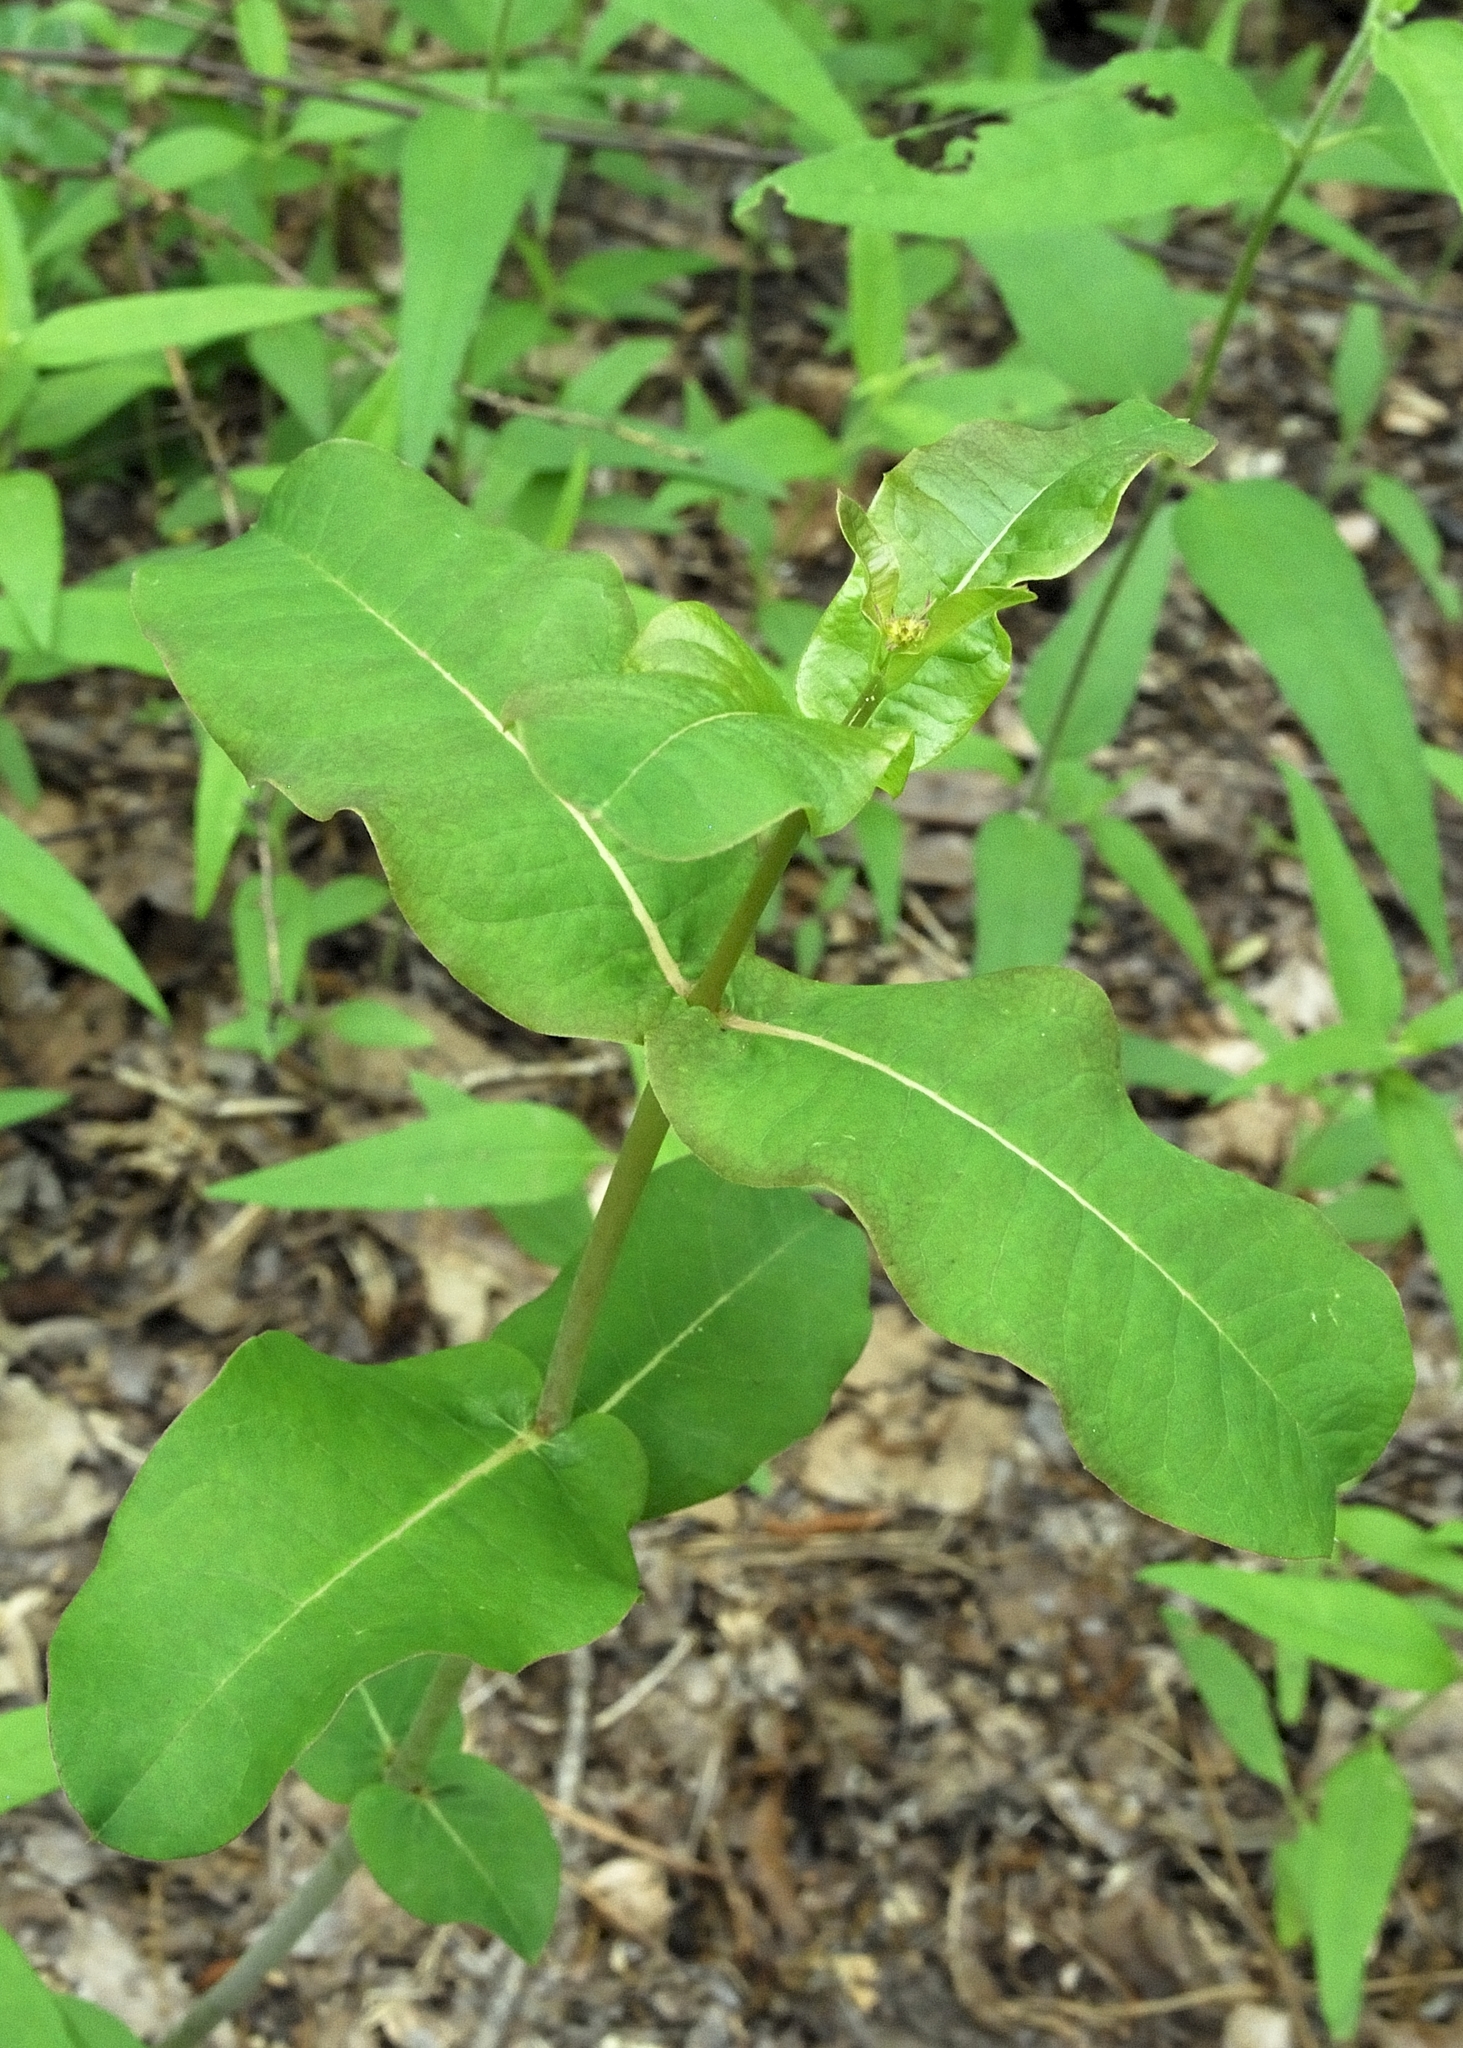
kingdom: Plantae
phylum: Tracheophyta
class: Magnoliopsida
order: Gentianales
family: Apocynaceae
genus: Asclepias
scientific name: Asclepias amplexicaulis
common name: Blunt-leaf milkweed
